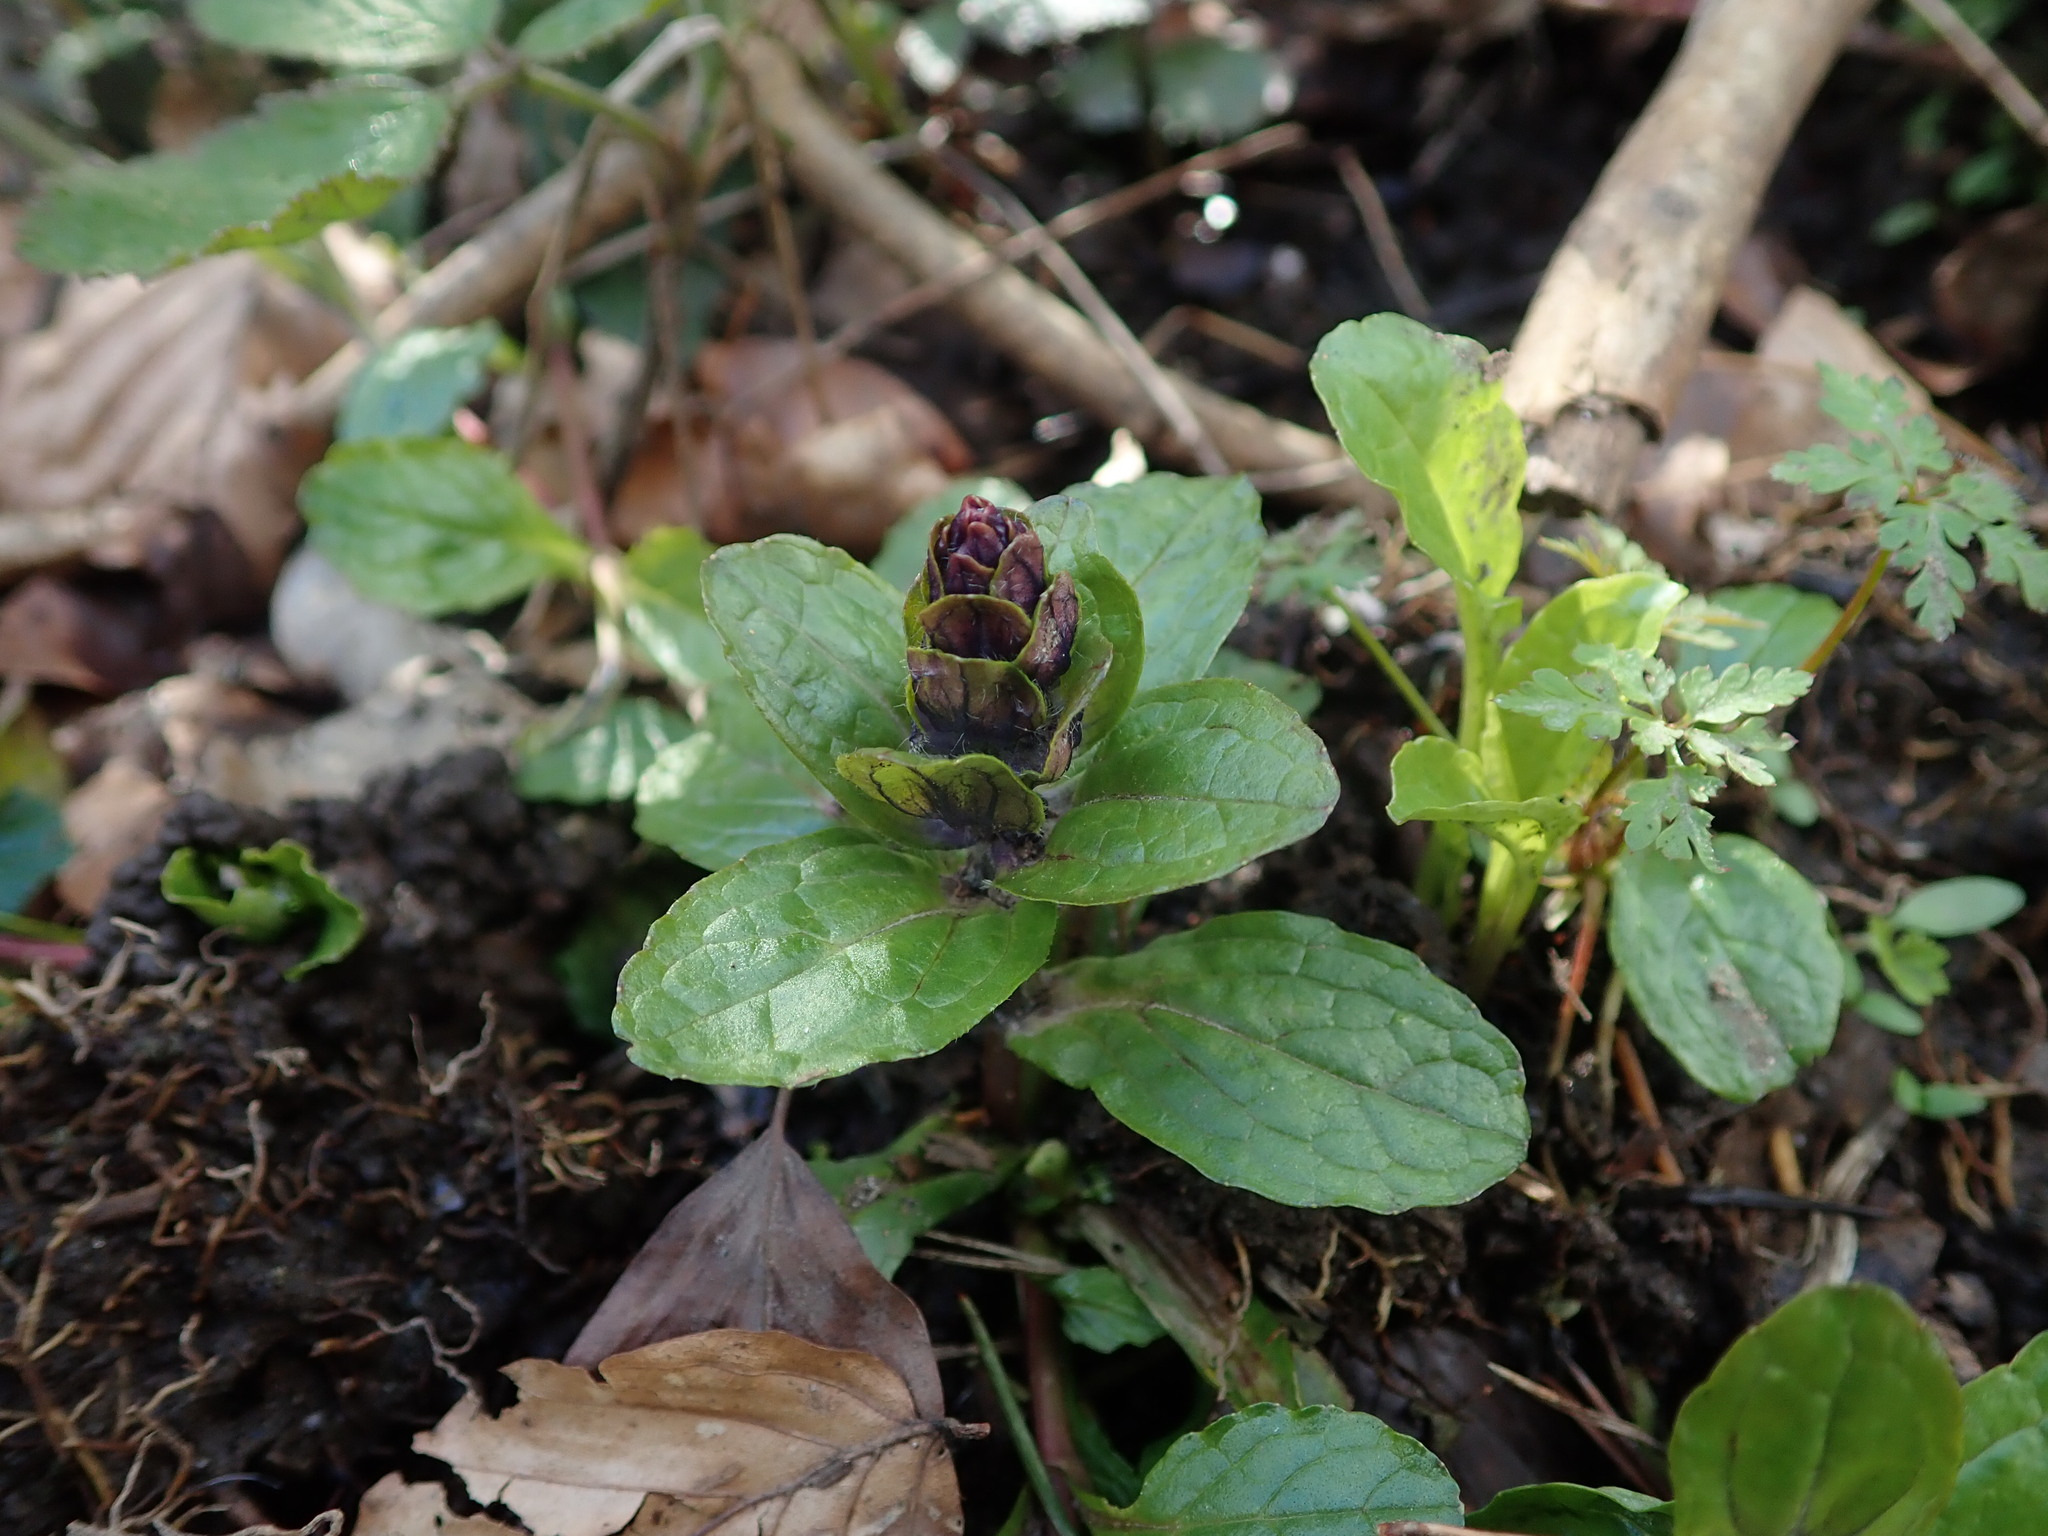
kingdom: Plantae
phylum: Tracheophyta
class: Magnoliopsida
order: Lamiales
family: Lamiaceae
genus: Ajuga
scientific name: Ajuga reptans
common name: Bugle
